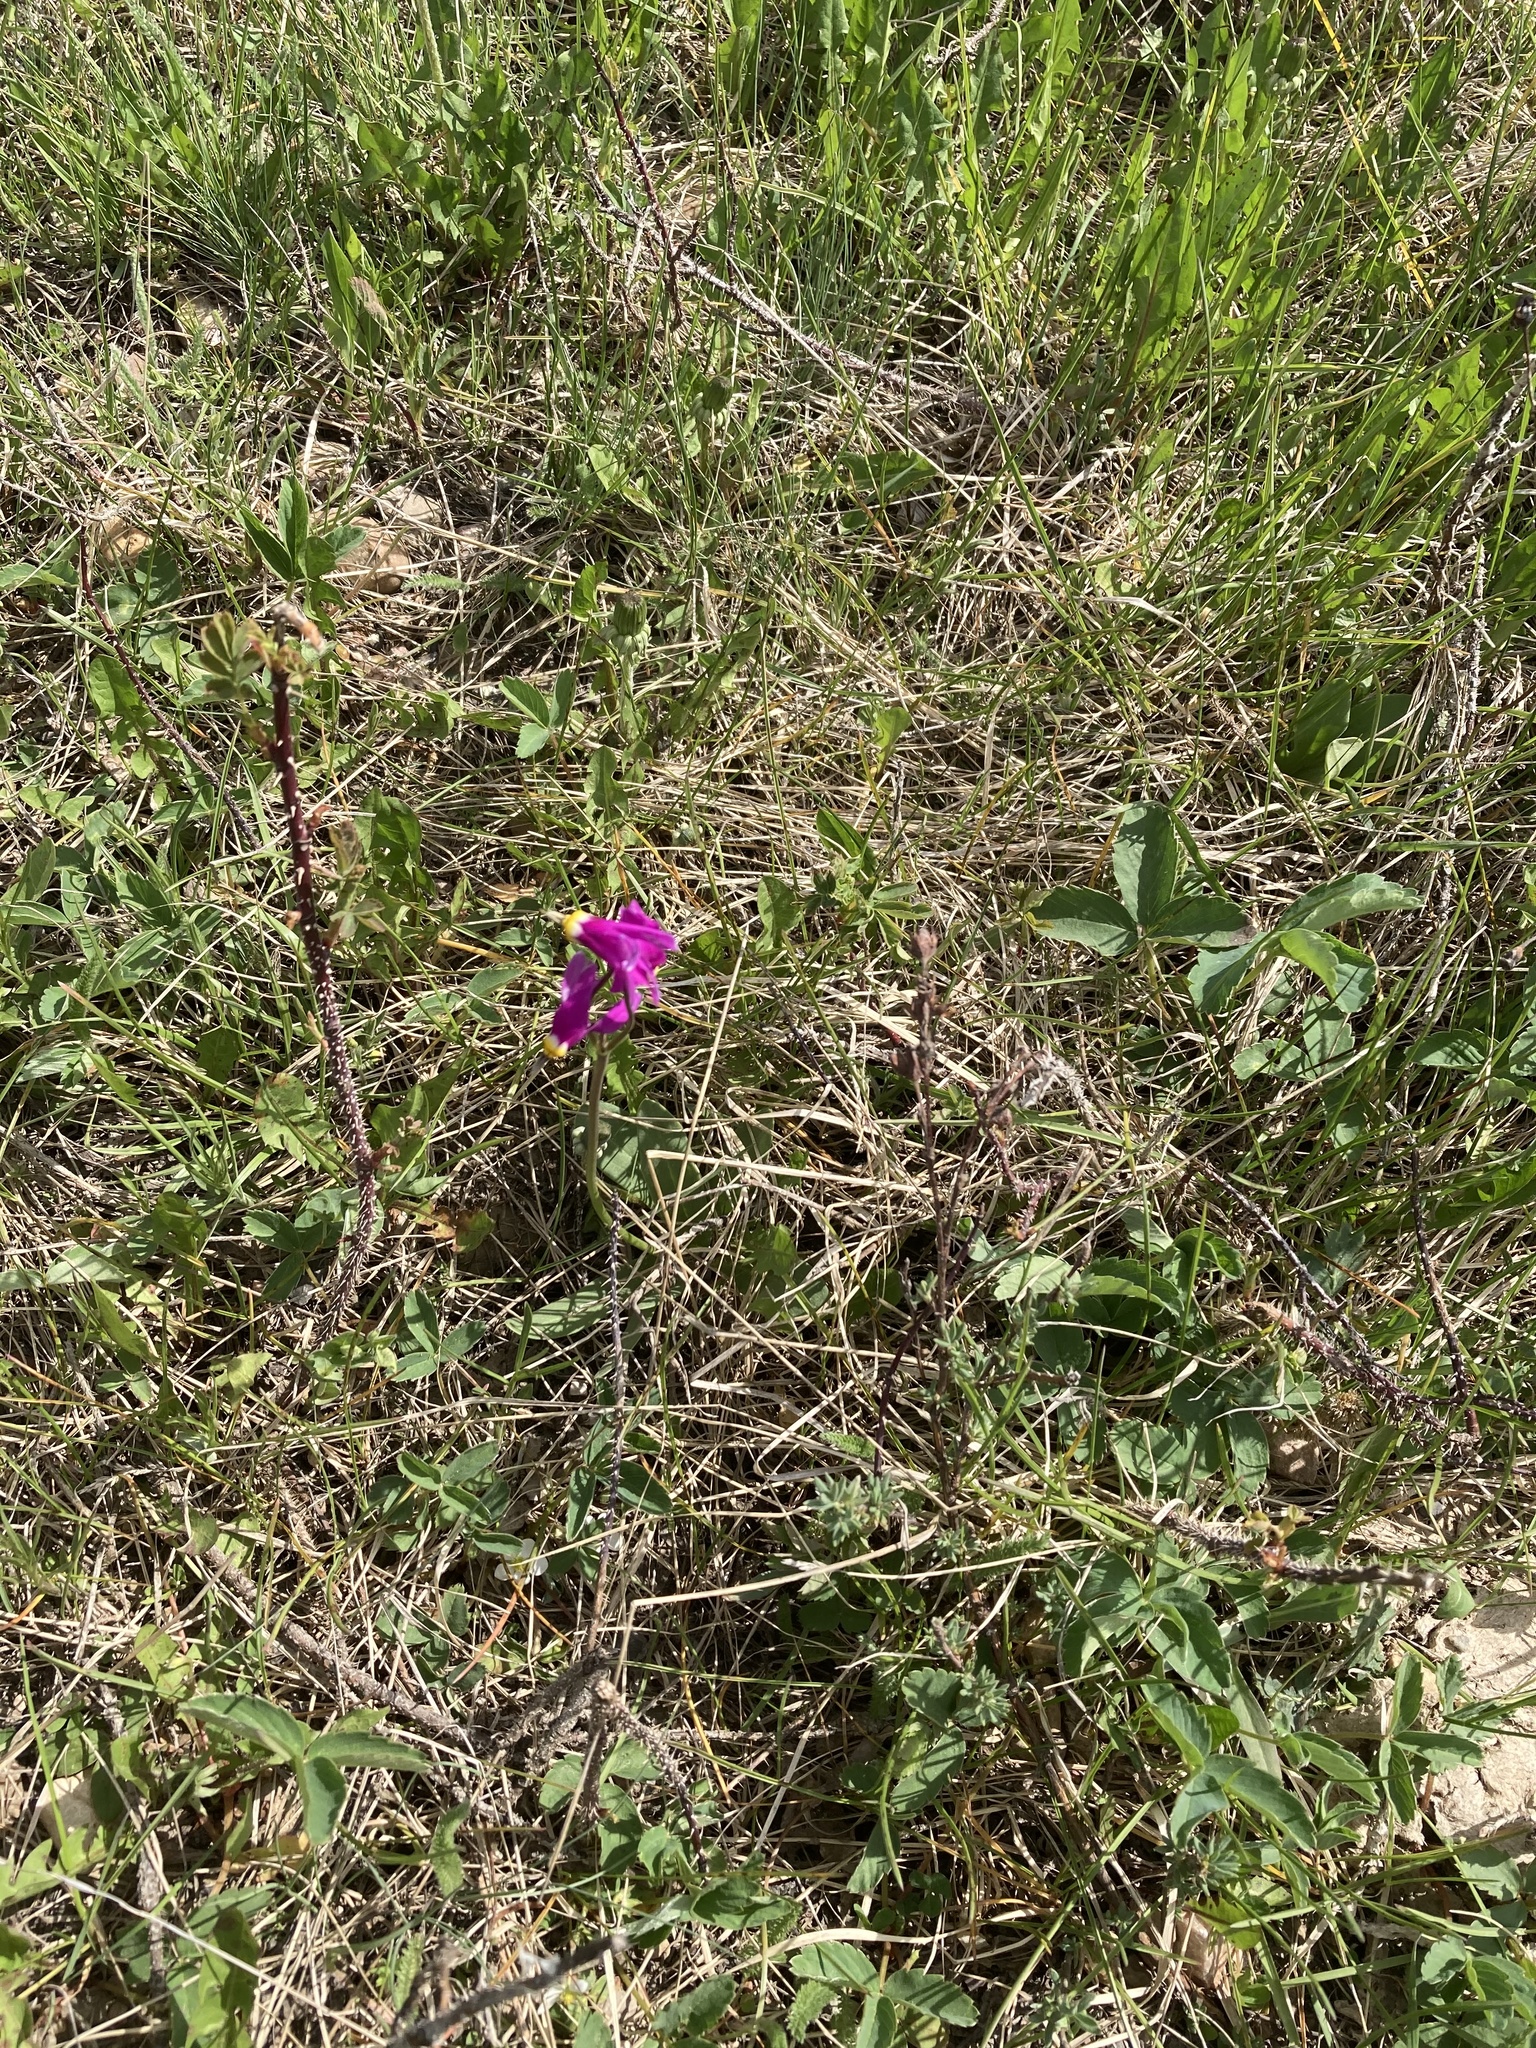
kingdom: Plantae
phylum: Tracheophyta
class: Magnoliopsida
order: Ericales
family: Primulaceae
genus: Dodecatheon
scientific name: Dodecatheon conjugens
